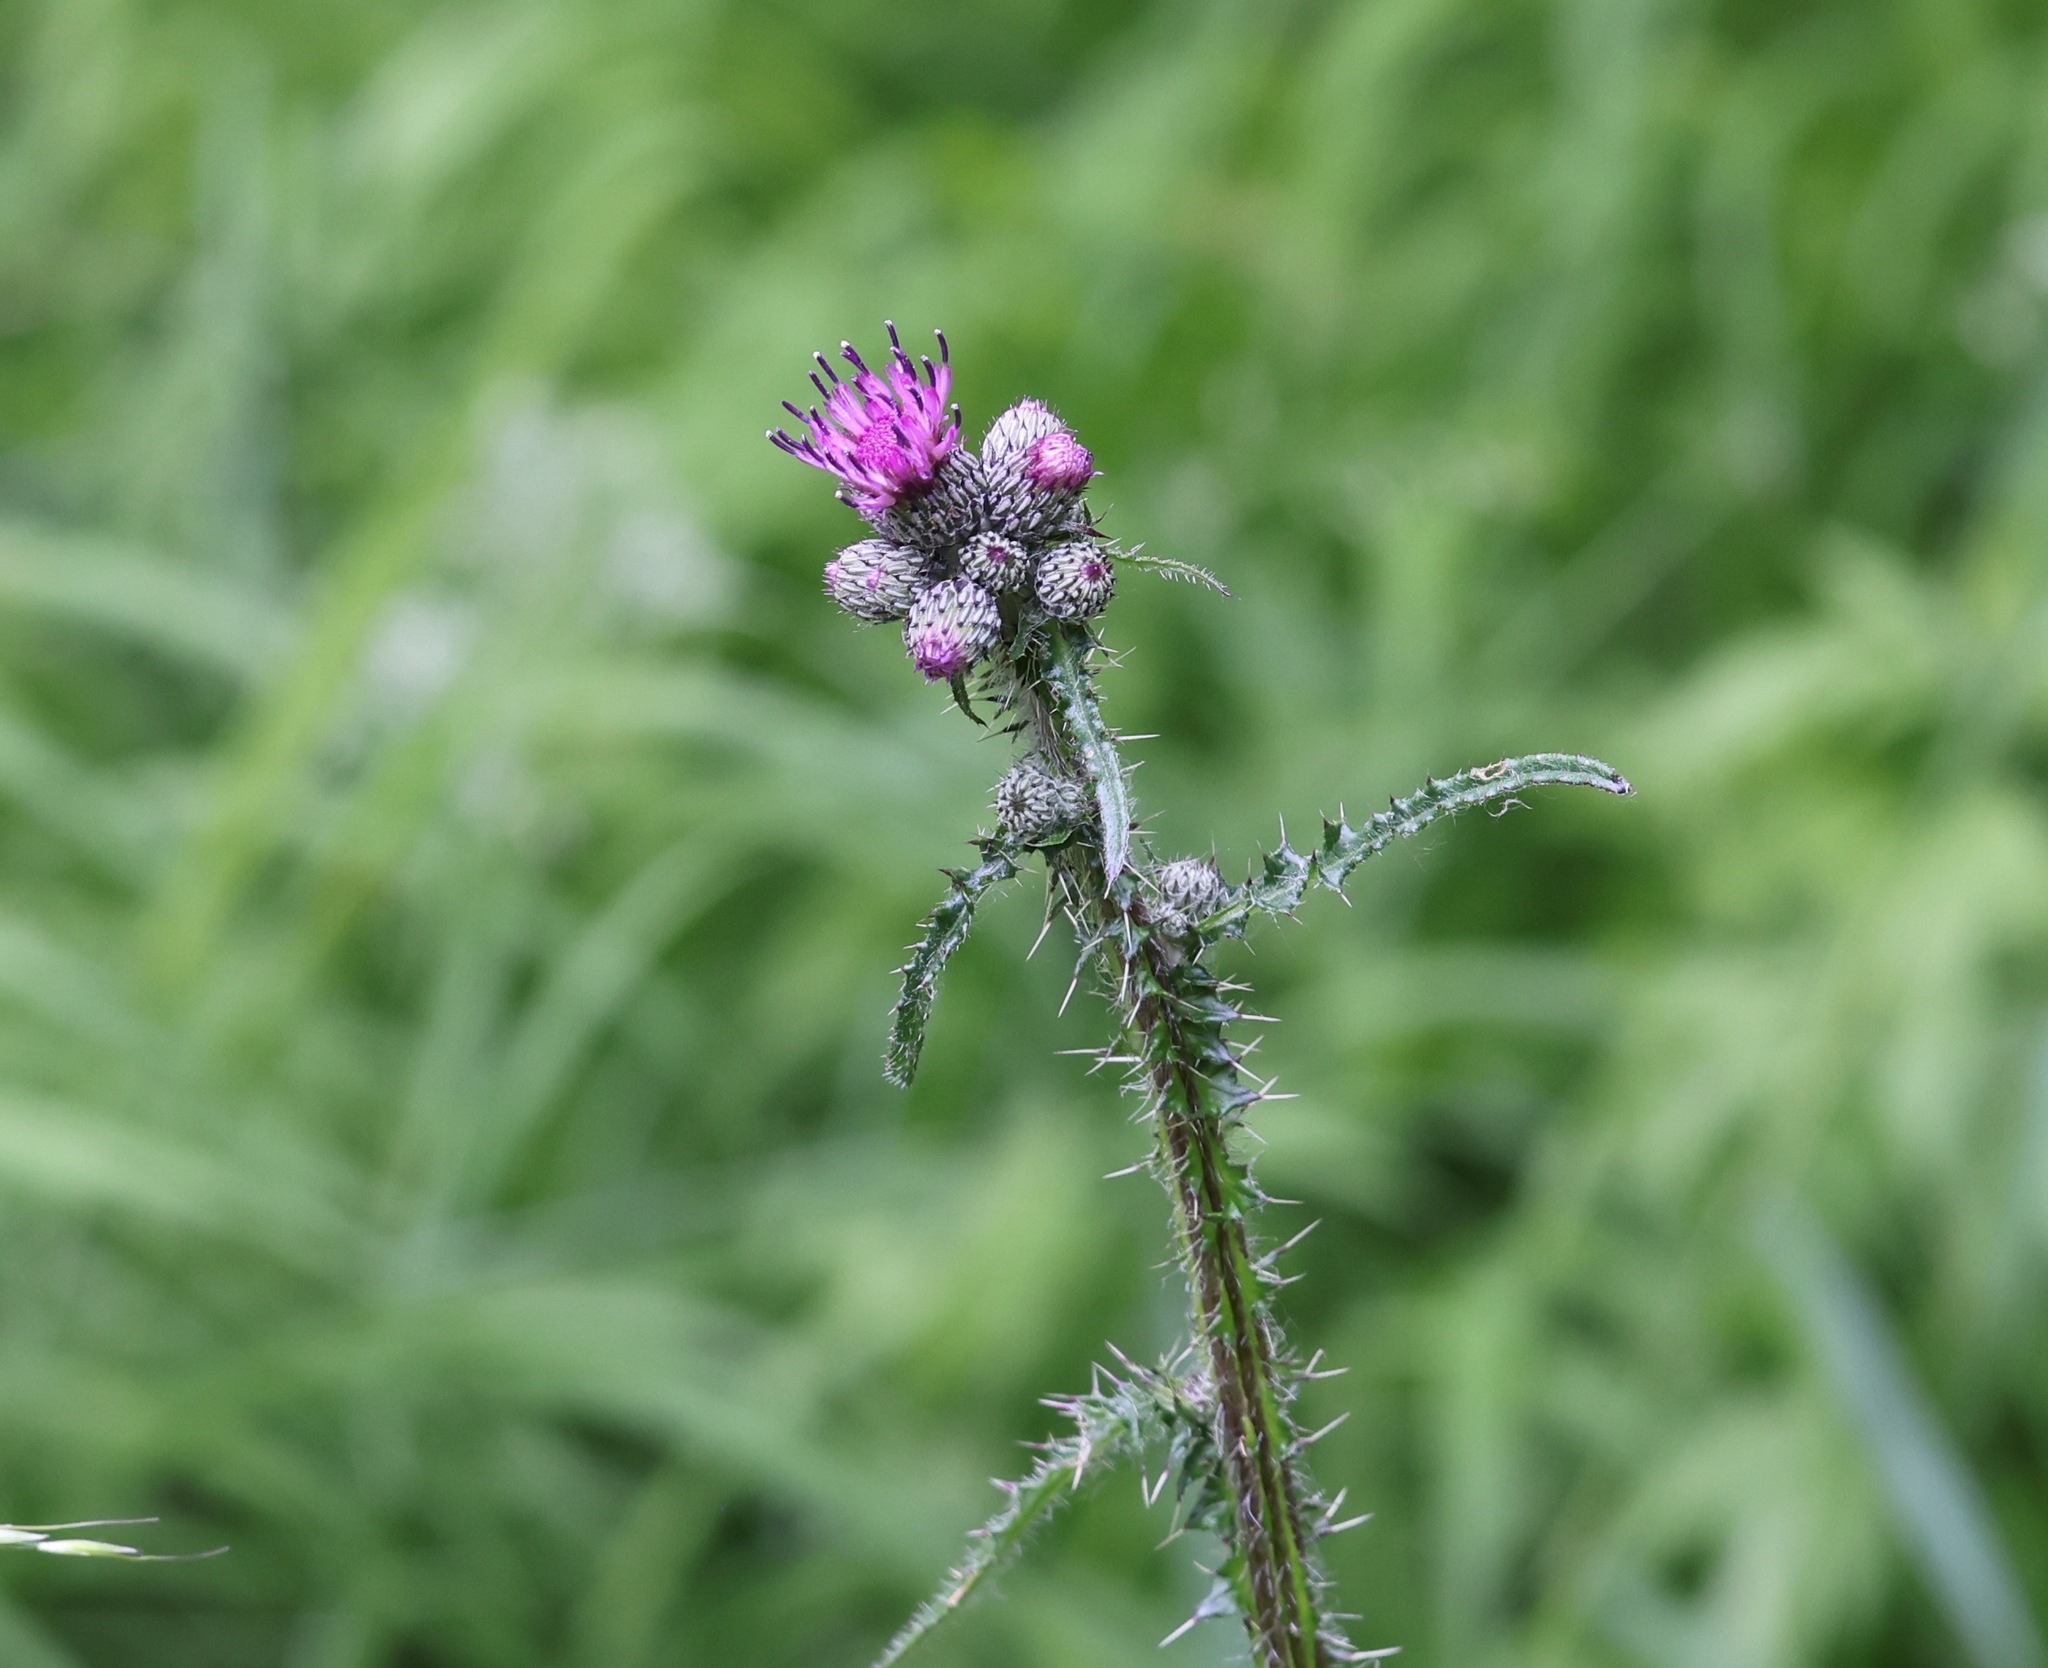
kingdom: Plantae
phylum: Tracheophyta
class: Magnoliopsida
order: Asterales
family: Asteraceae
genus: Cirsium
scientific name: Cirsium palustre
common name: Marsh thistle
